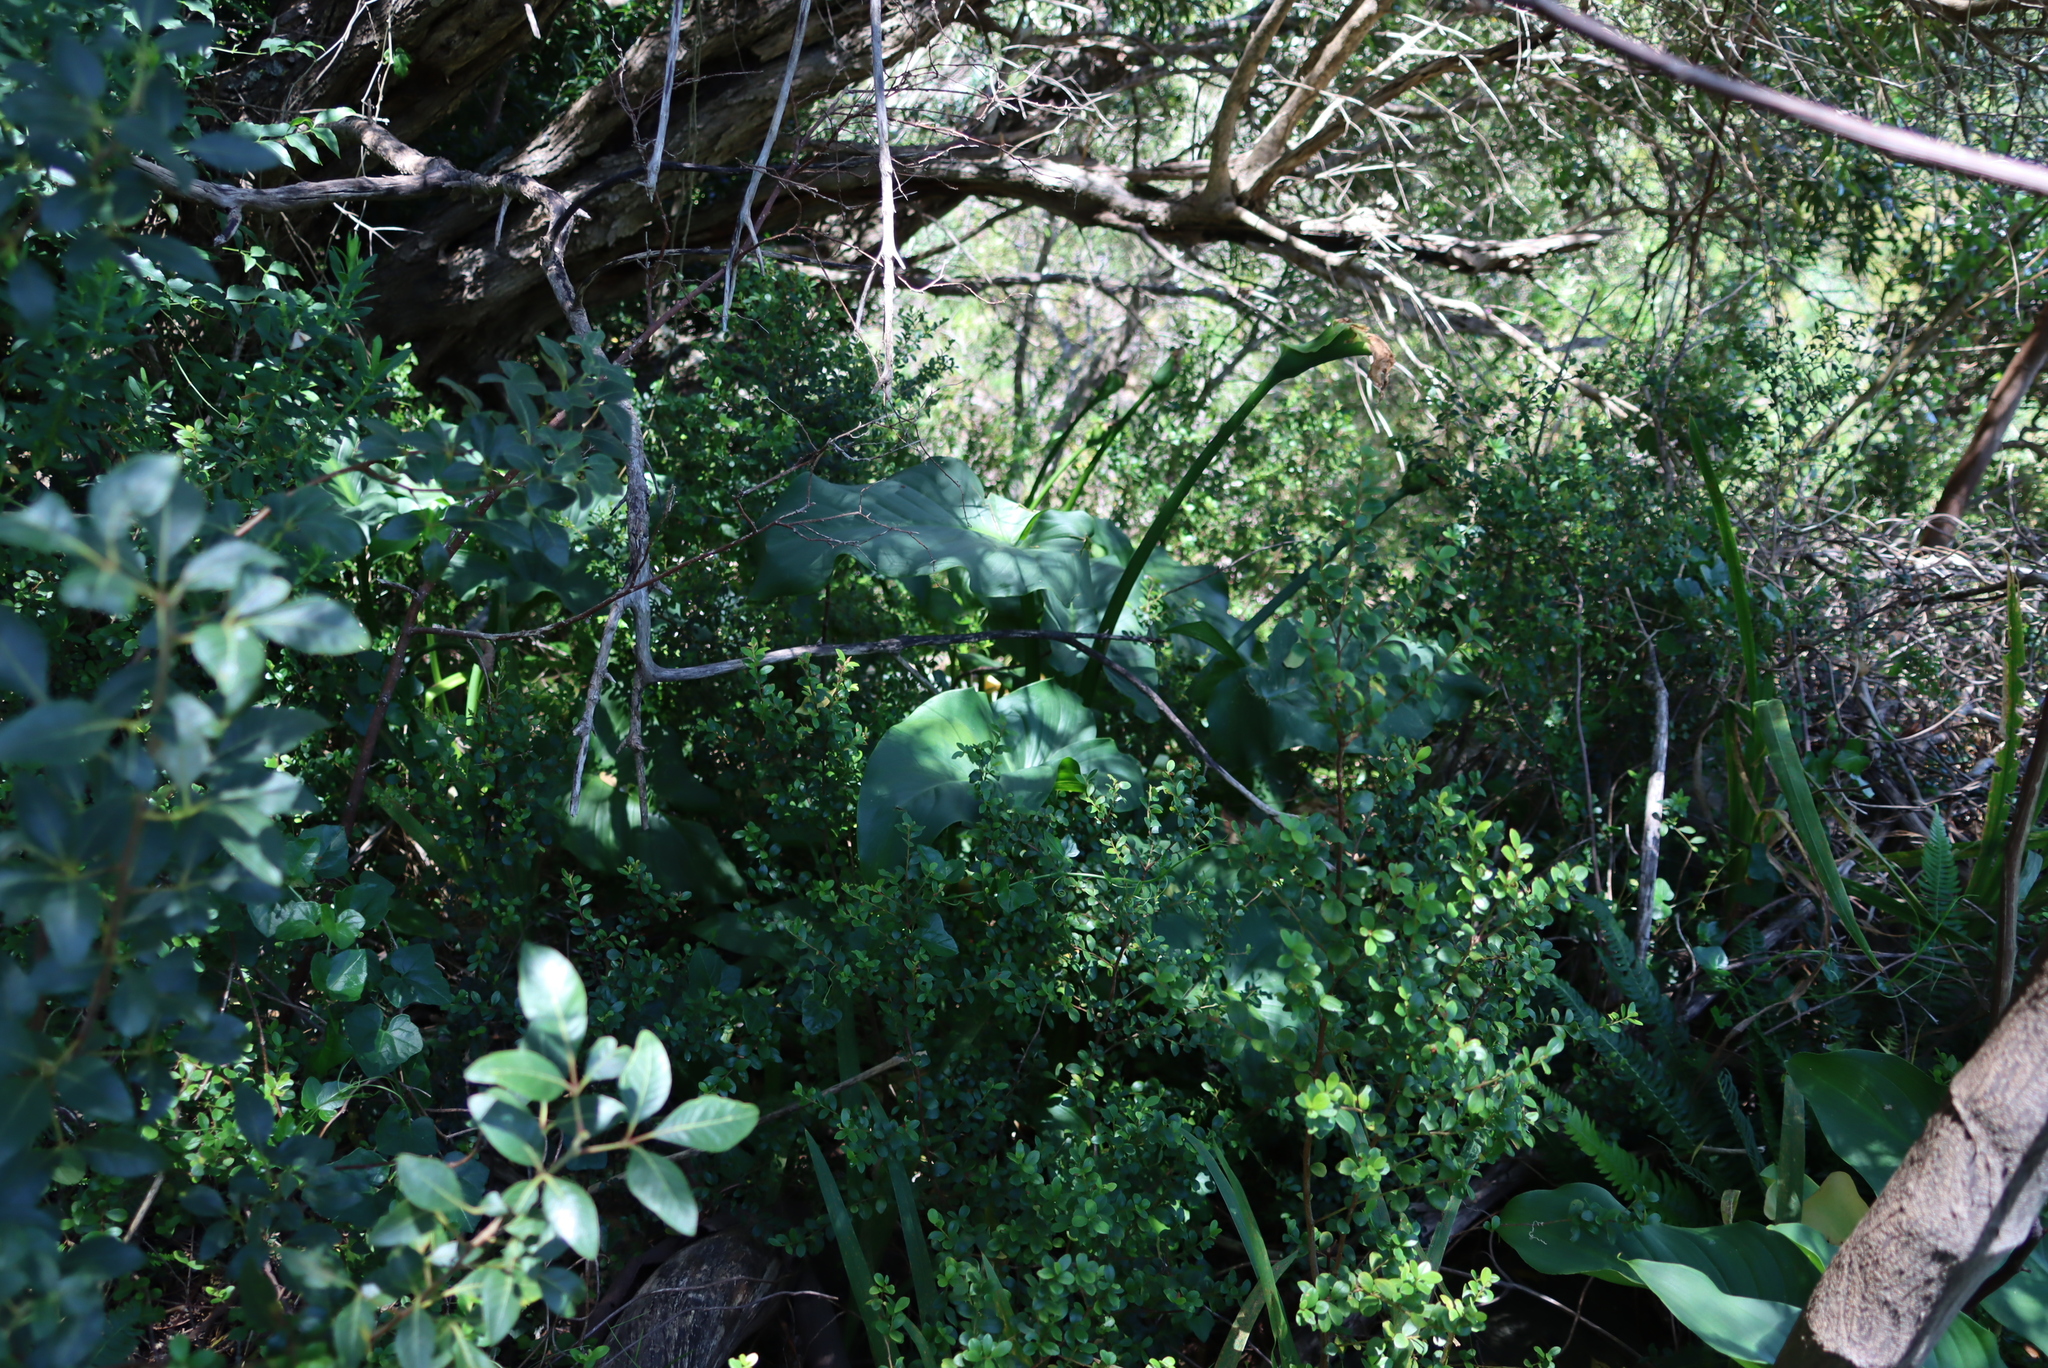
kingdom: Plantae
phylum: Tracheophyta
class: Liliopsida
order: Alismatales
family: Araceae
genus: Zantedeschia
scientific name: Zantedeschia aethiopica
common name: Altar-lily
